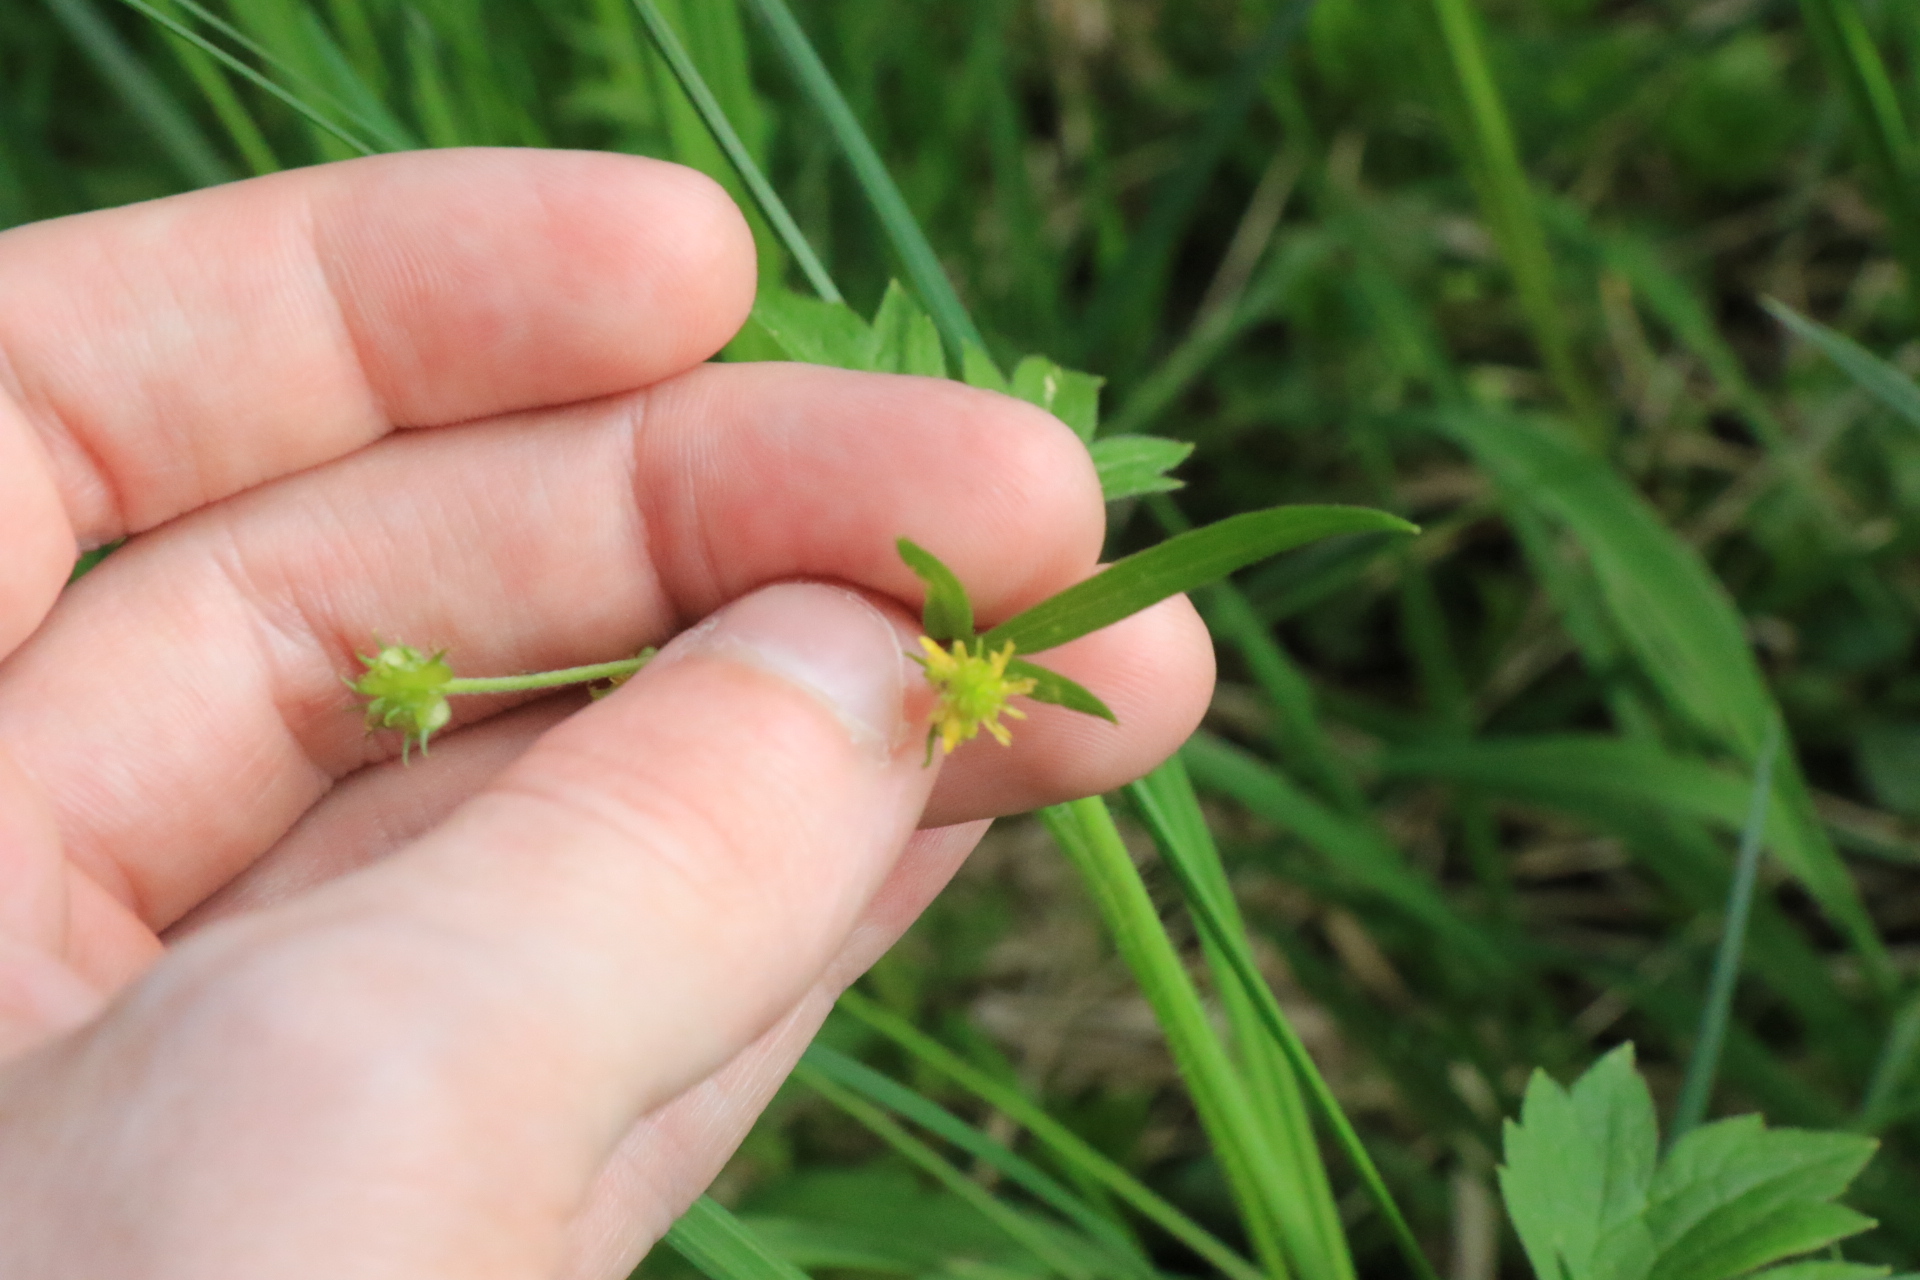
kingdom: Plantae
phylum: Tracheophyta
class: Magnoliopsida
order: Ranunculales
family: Ranunculaceae
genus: Ranunculus
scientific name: Ranunculus parviflorus
